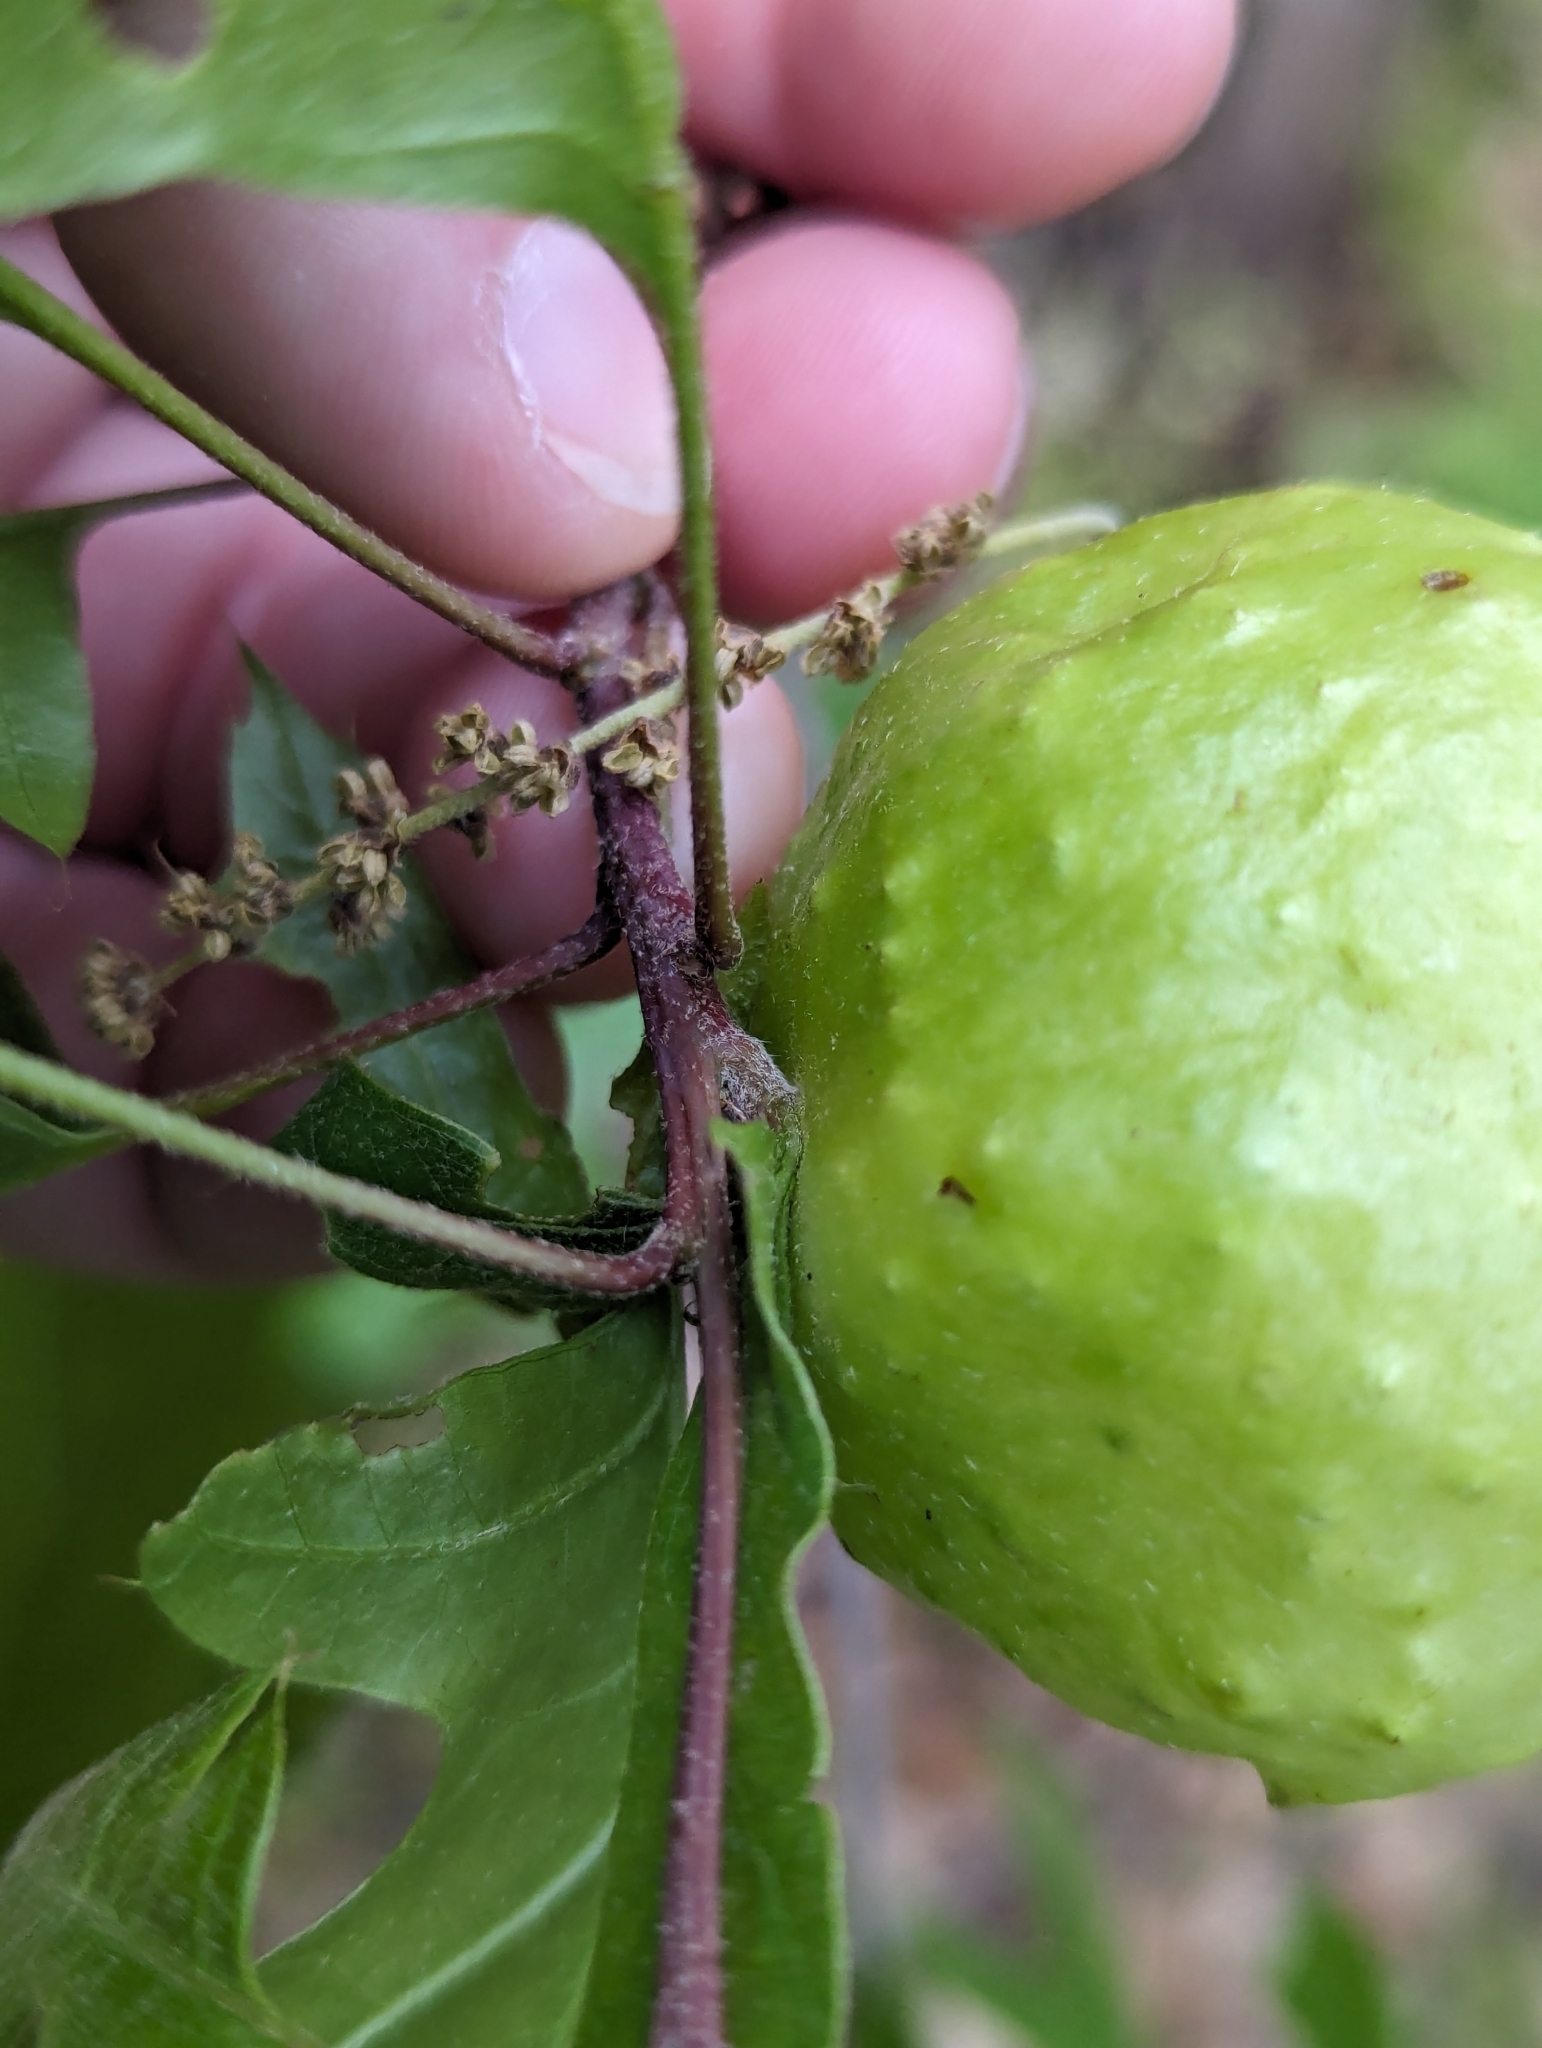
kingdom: Animalia
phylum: Arthropoda
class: Insecta
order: Hymenoptera
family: Cynipidae
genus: Amphibolips
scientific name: Amphibolips
